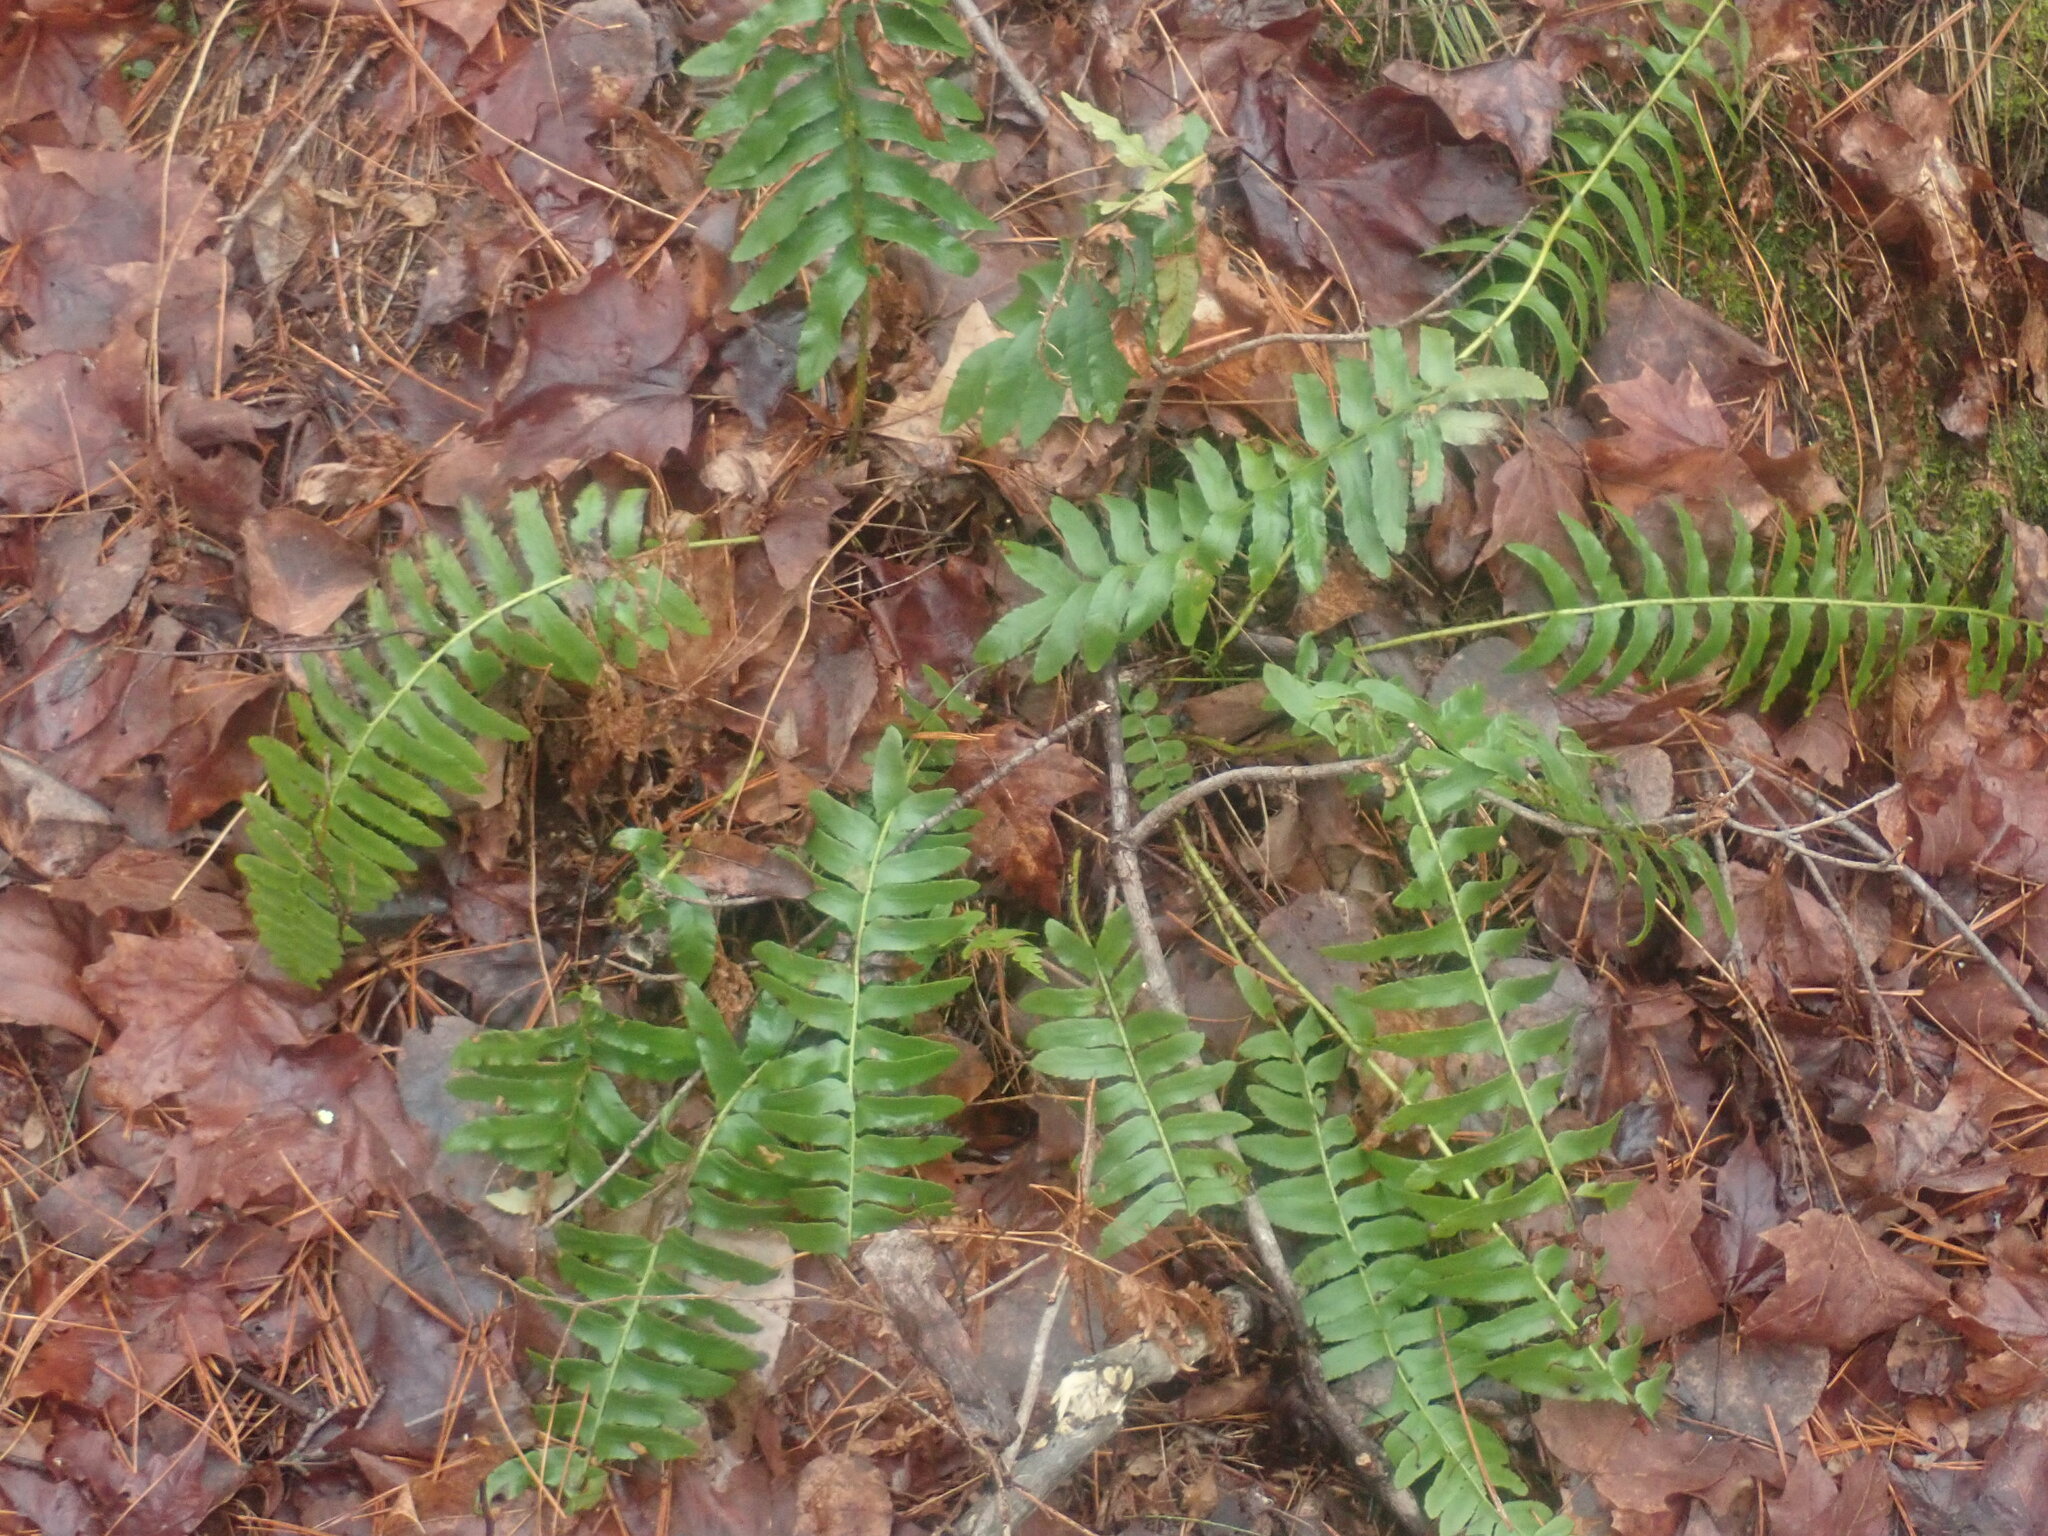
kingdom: Plantae
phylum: Tracheophyta
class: Polypodiopsida
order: Polypodiales
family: Dryopteridaceae
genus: Polystichum
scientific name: Polystichum acrostichoides
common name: Christmas fern
